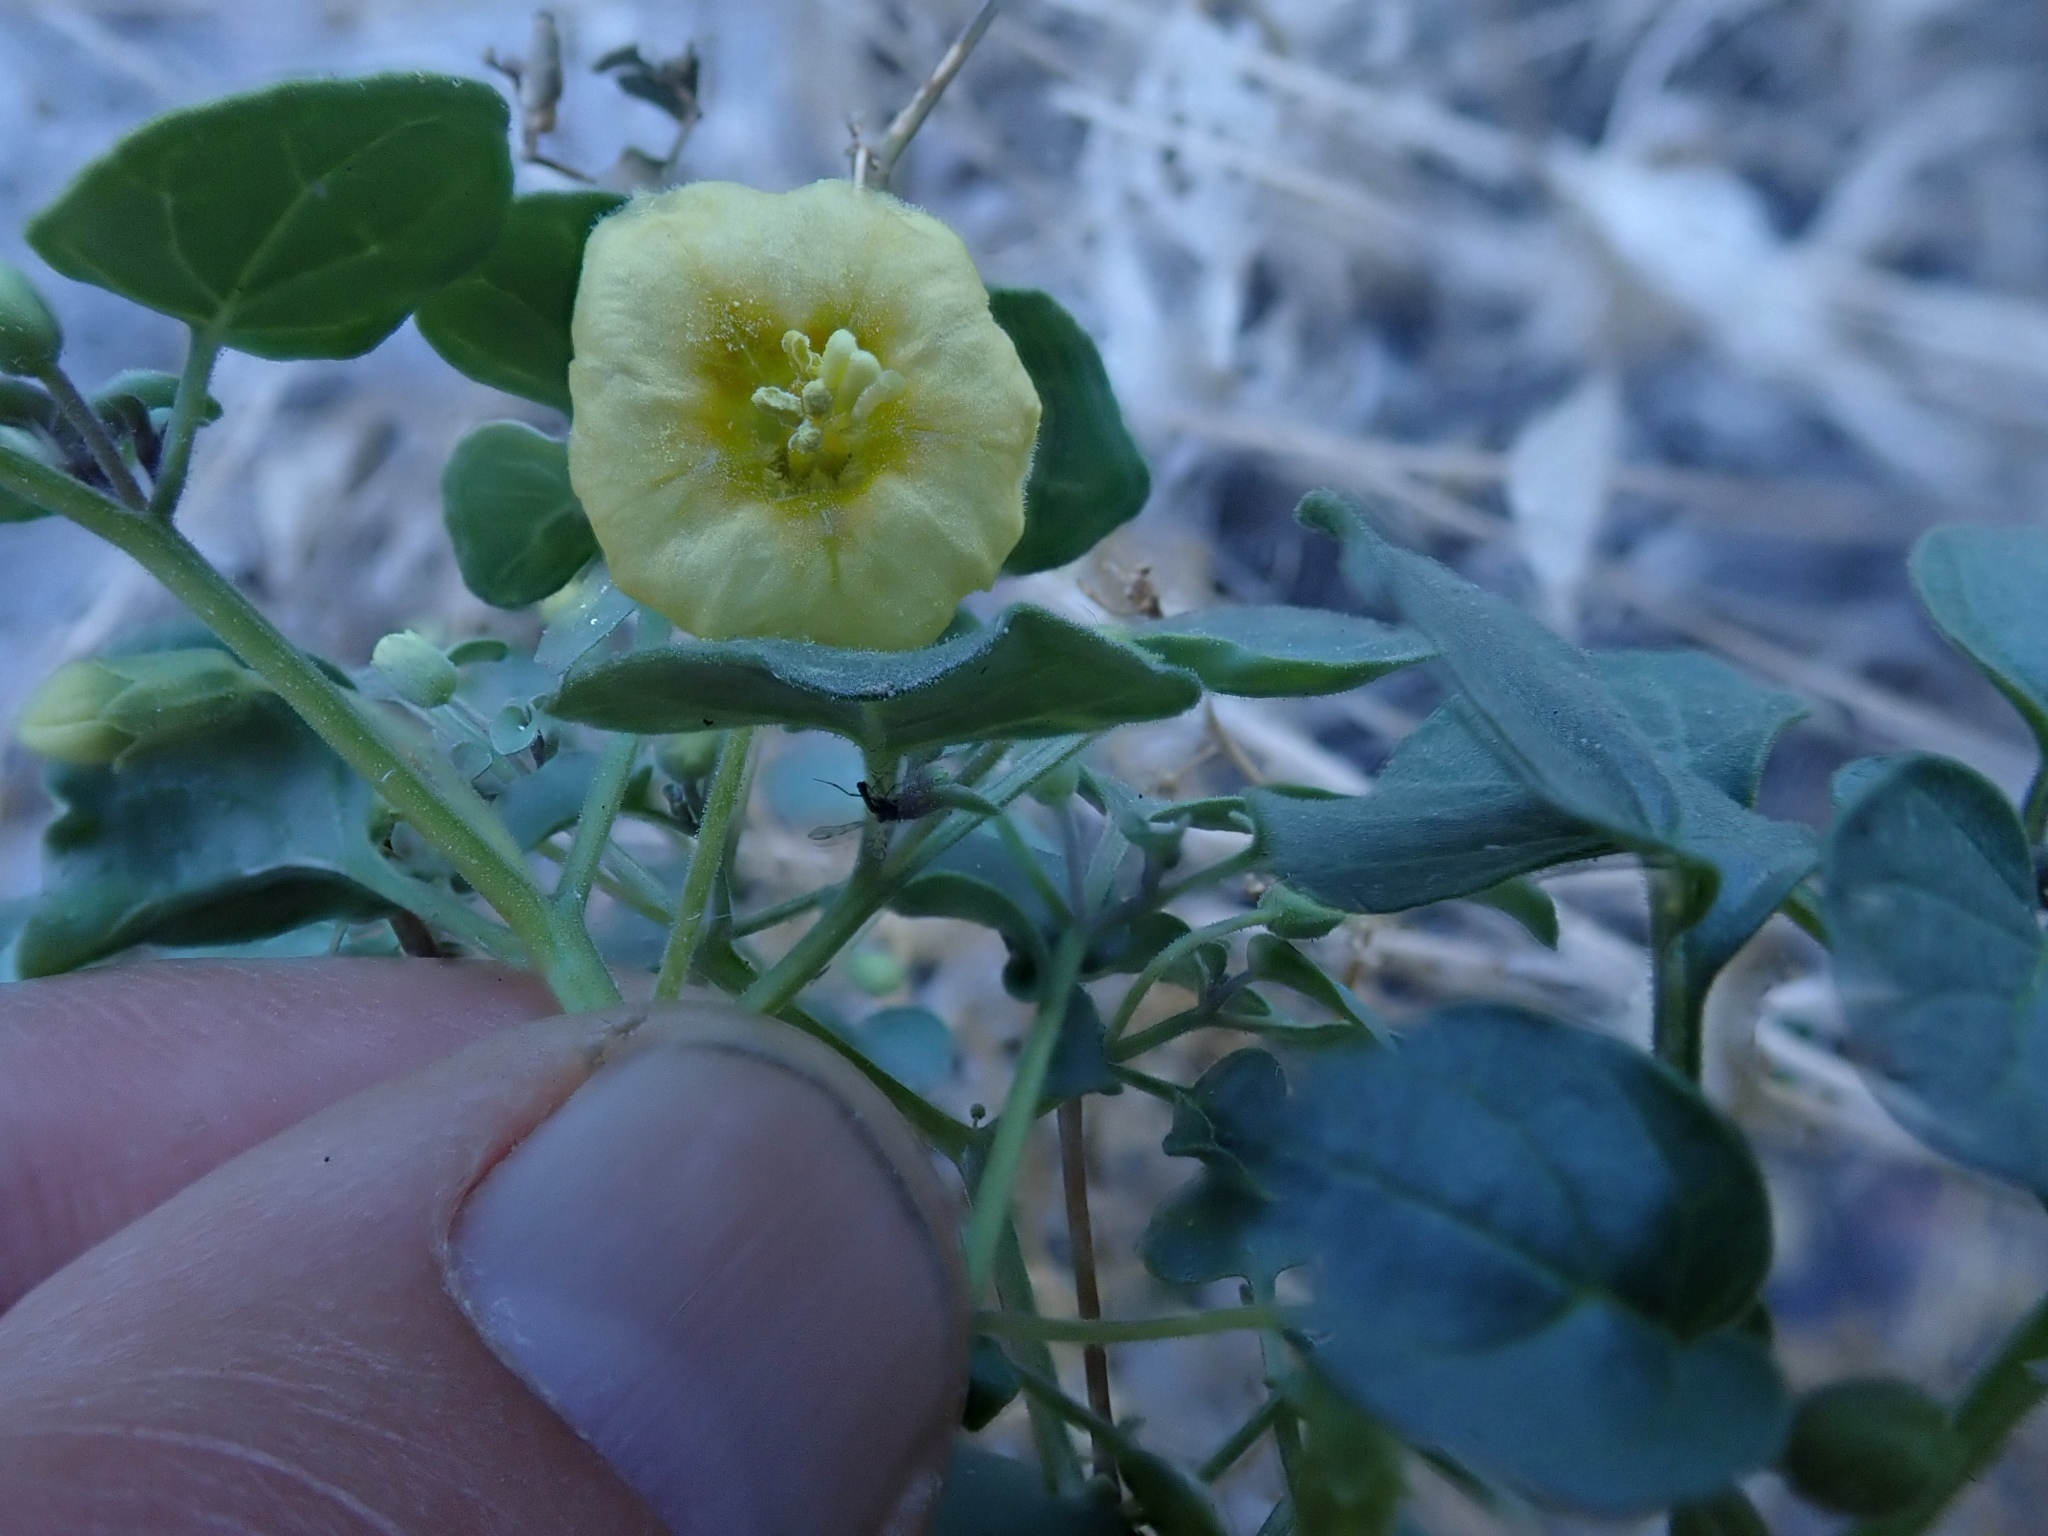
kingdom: Plantae
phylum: Tracheophyta
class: Magnoliopsida
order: Solanales
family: Solanaceae
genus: Physalis
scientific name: Physalis crassifolia
